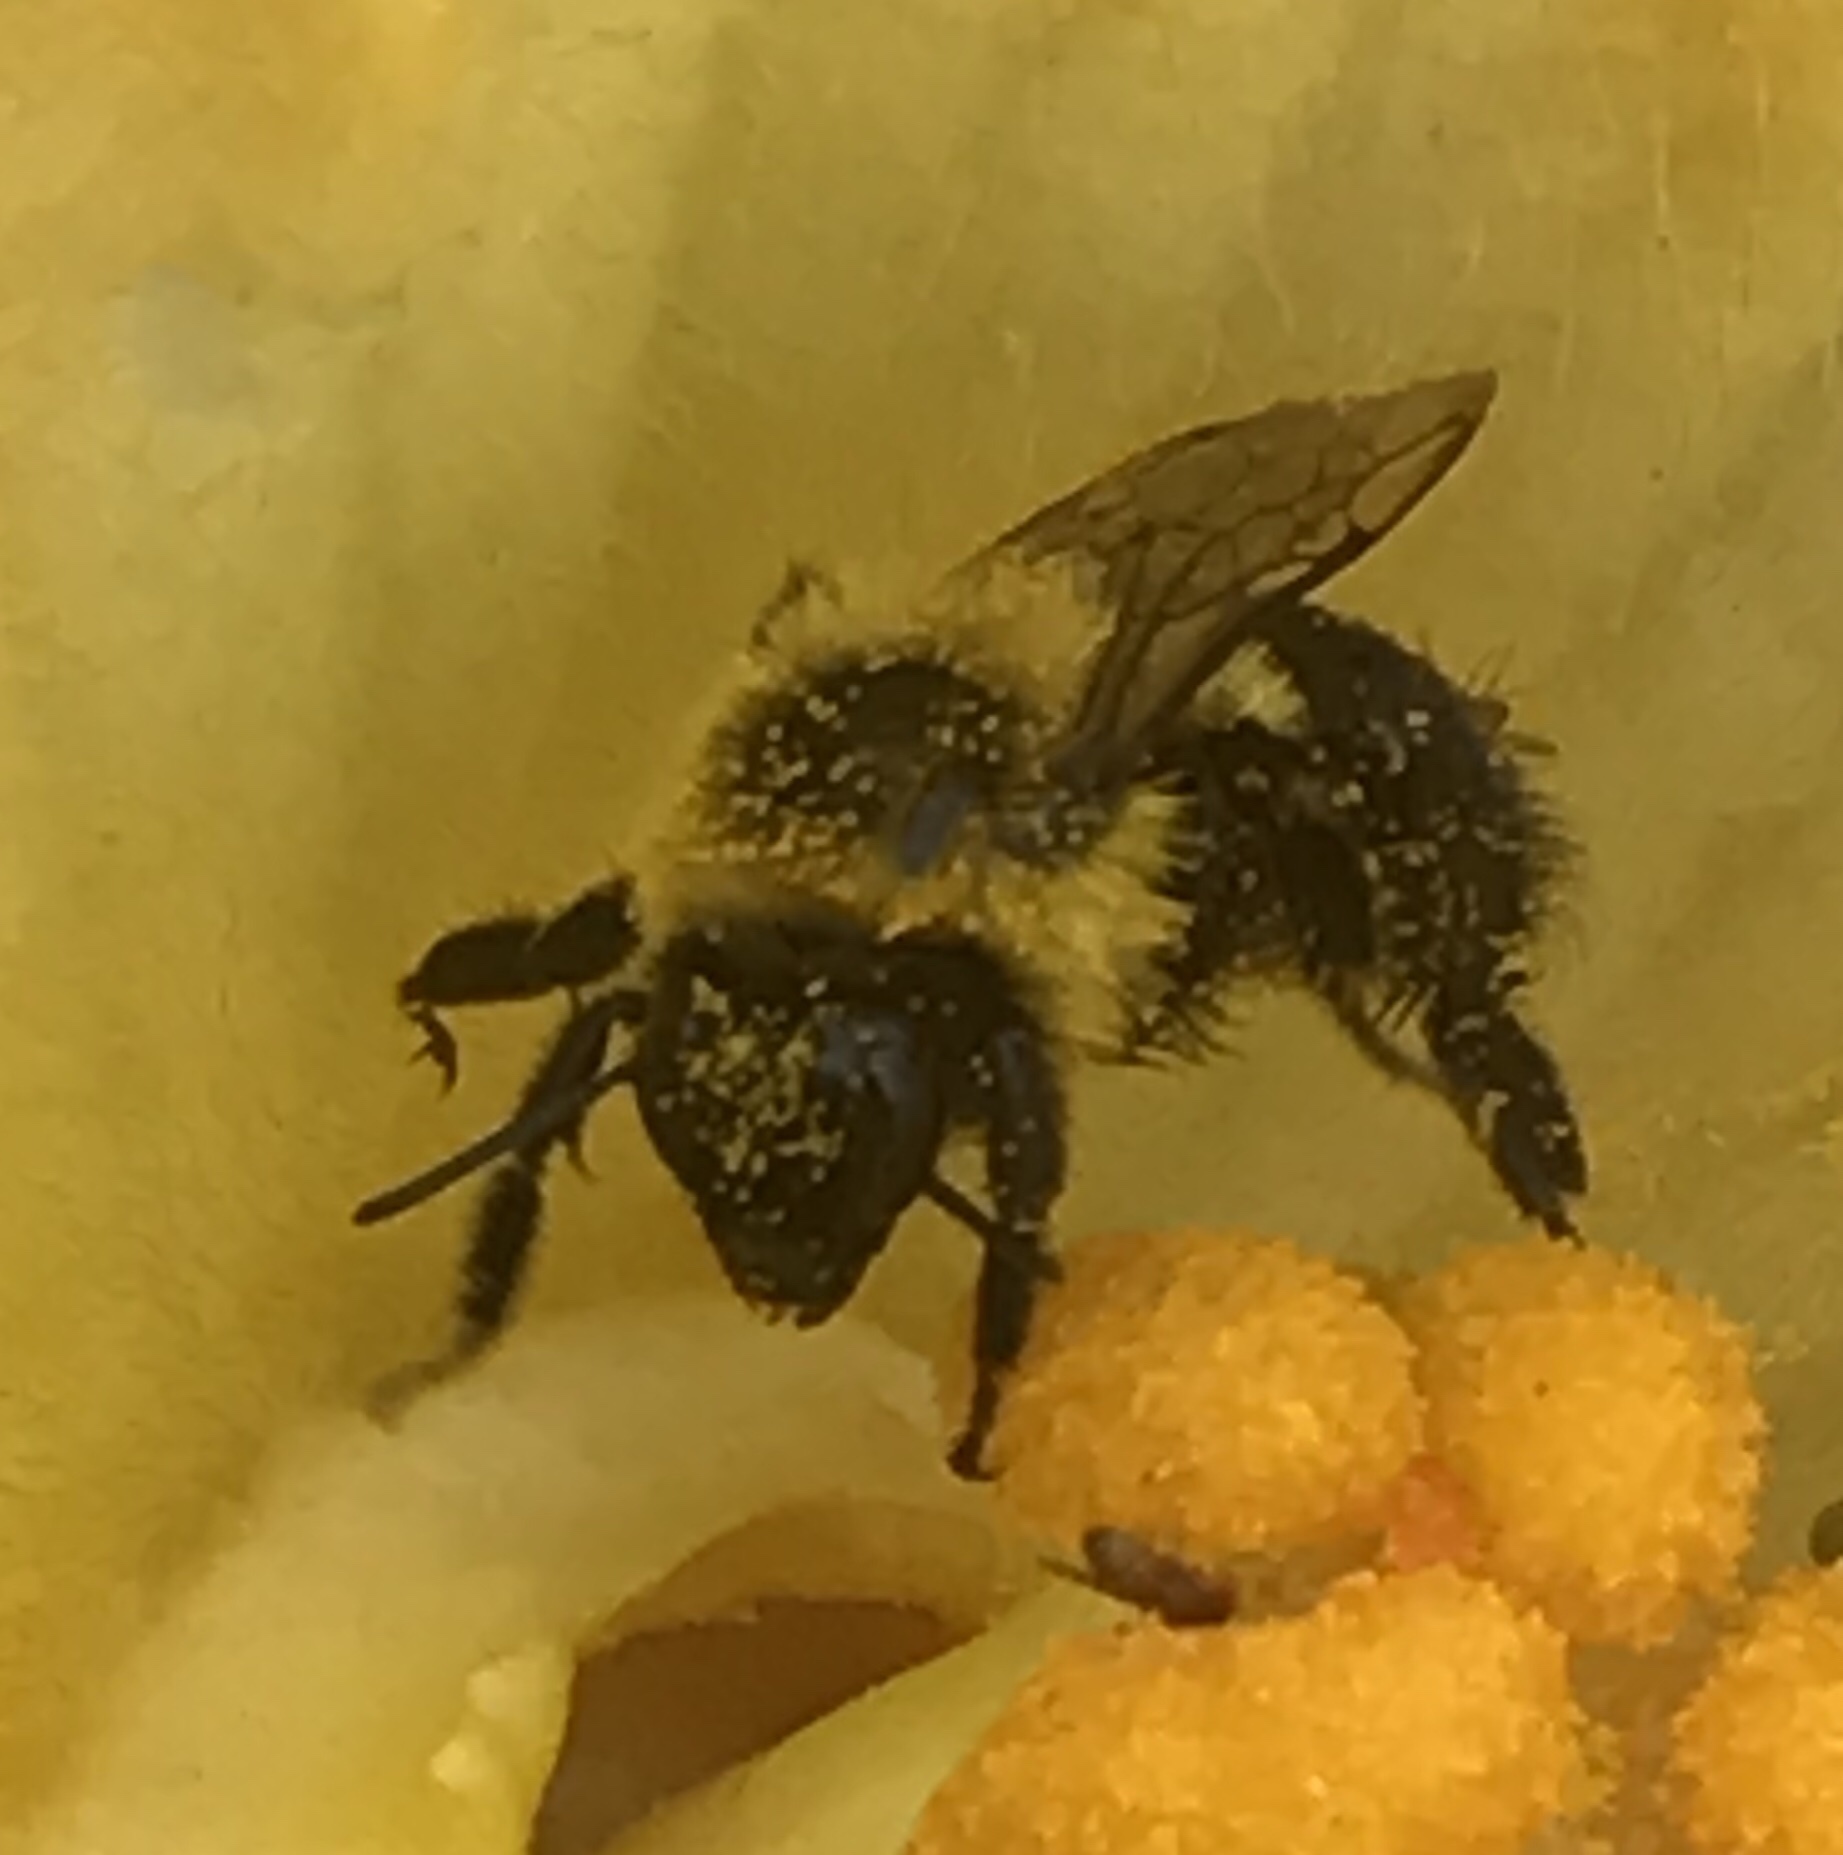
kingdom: Animalia
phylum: Arthropoda
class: Insecta
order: Hymenoptera
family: Apidae
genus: Bombus
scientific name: Bombus impatiens
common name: Common eastern bumble bee
